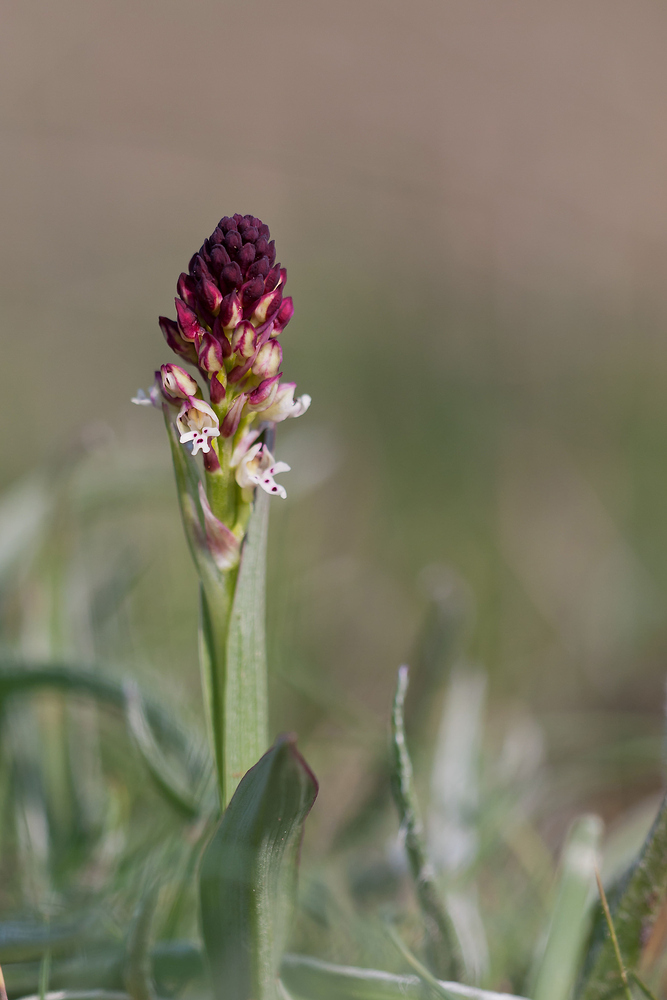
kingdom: Plantae
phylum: Tracheophyta
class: Liliopsida
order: Asparagales
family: Orchidaceae
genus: Neotinea
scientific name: Neotinea ustulata
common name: Burnt orchid
